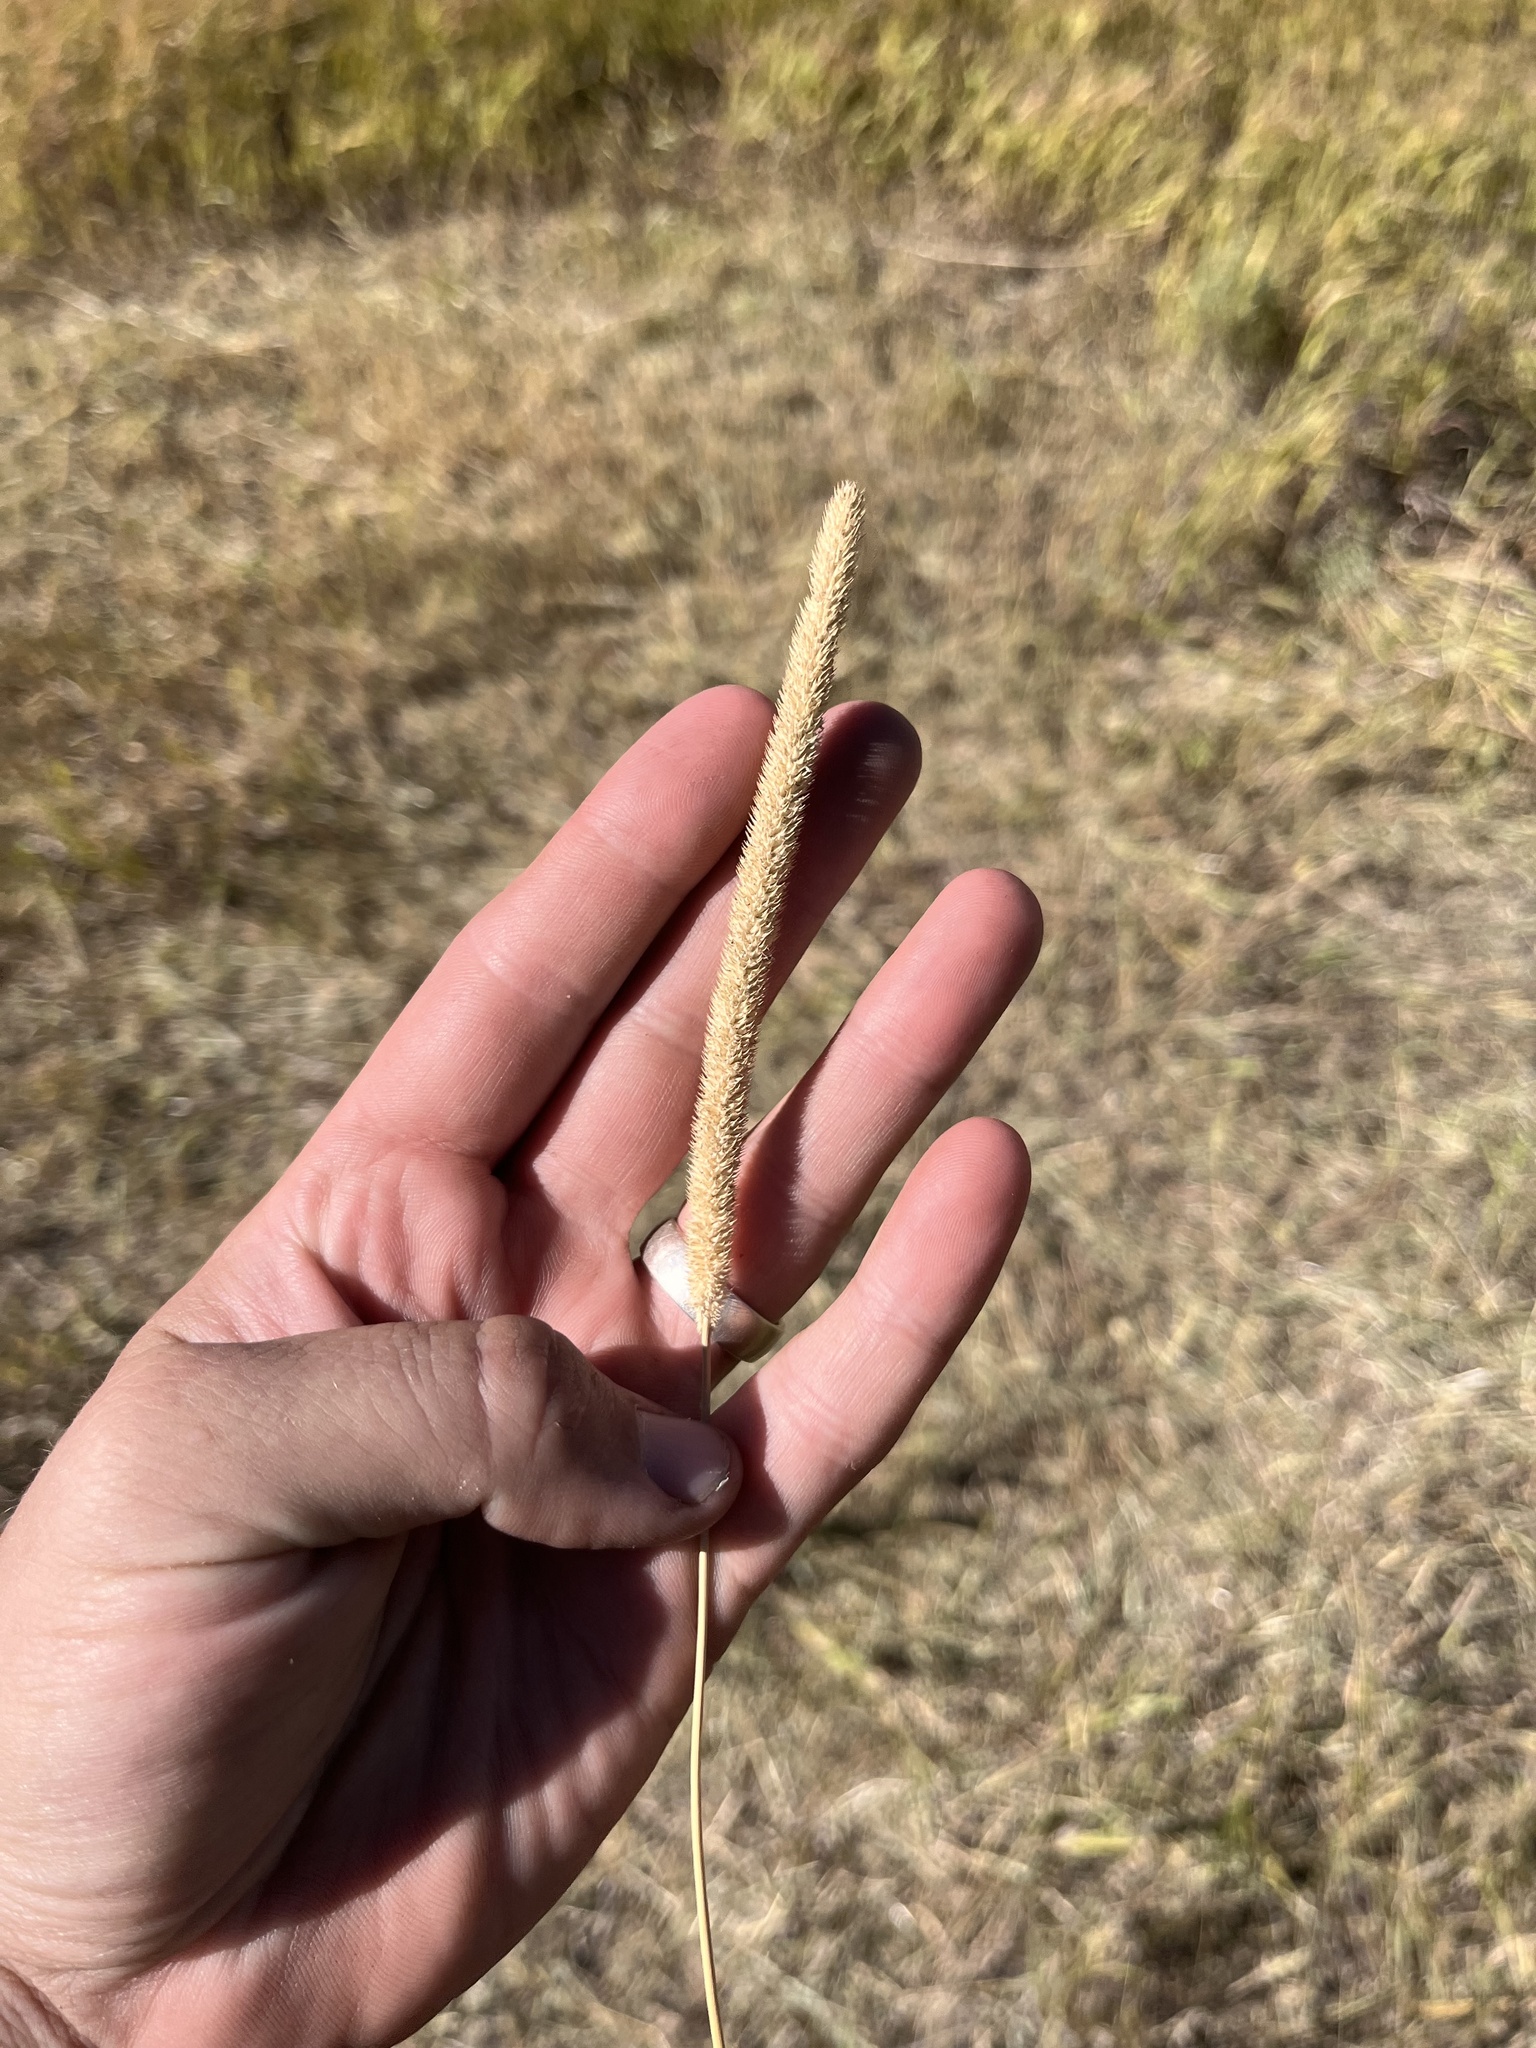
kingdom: Plantae
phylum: Tracheophyta
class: Liliopsida
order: Poales
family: Poaceae
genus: Phleum
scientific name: Phleum pratense
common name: Timothy grass
